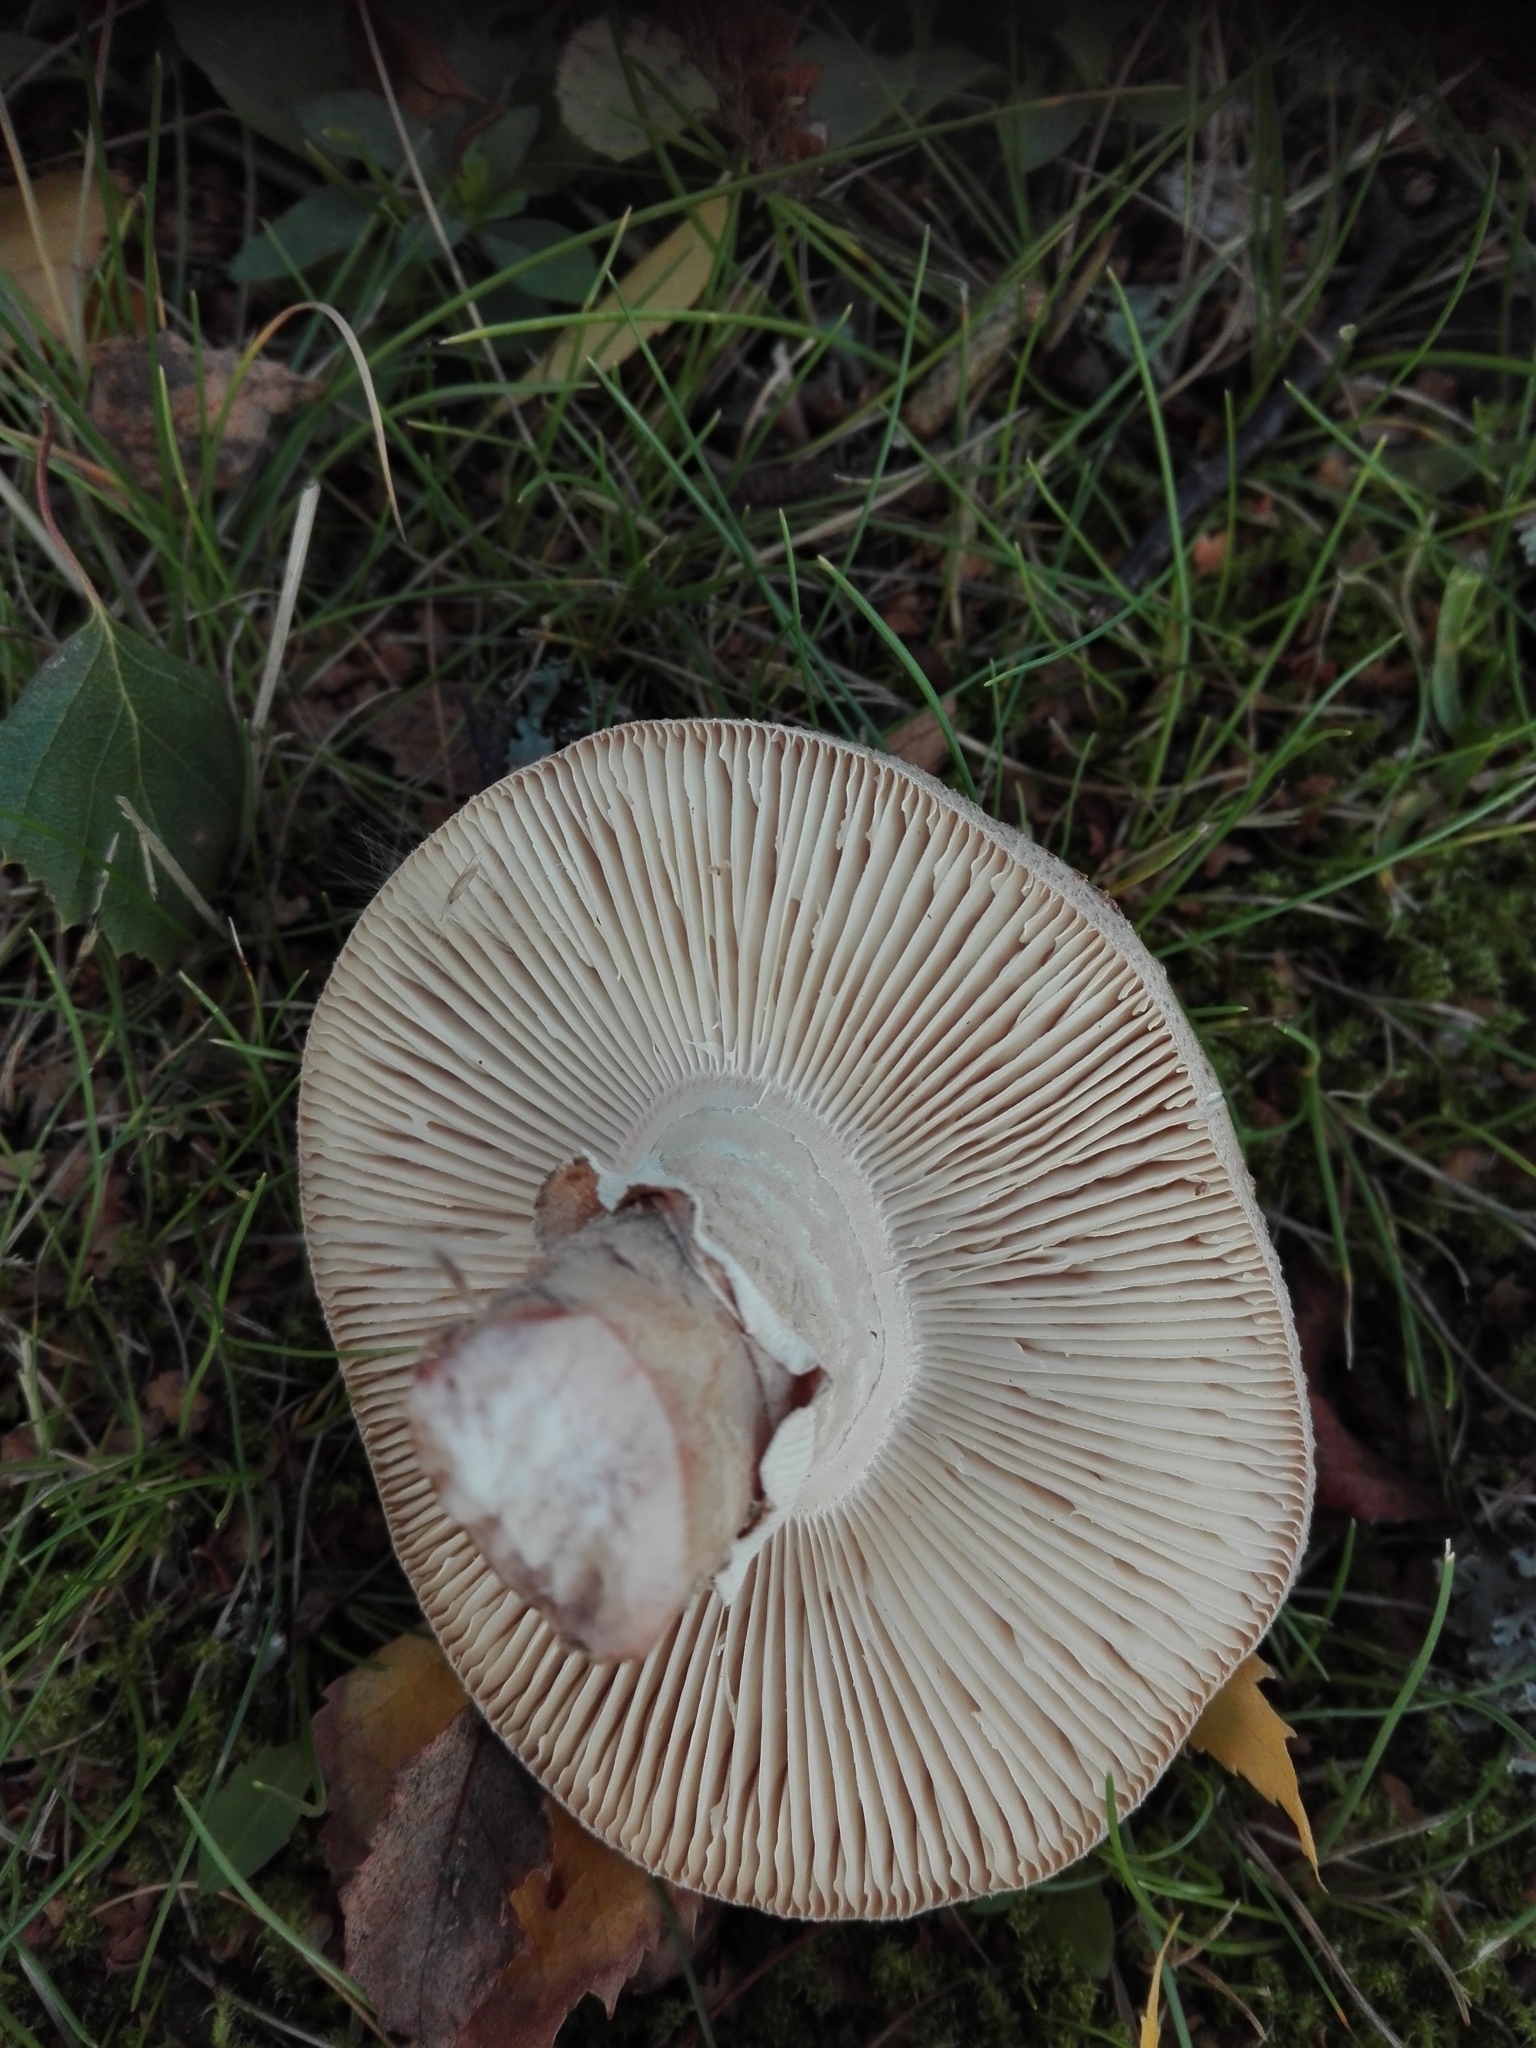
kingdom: Fungi
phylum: Basidiomycota
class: Agaricomycetes
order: Agaricales
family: Amanitaceae
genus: Amanita
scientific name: Amanita rubescens
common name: Blusher
